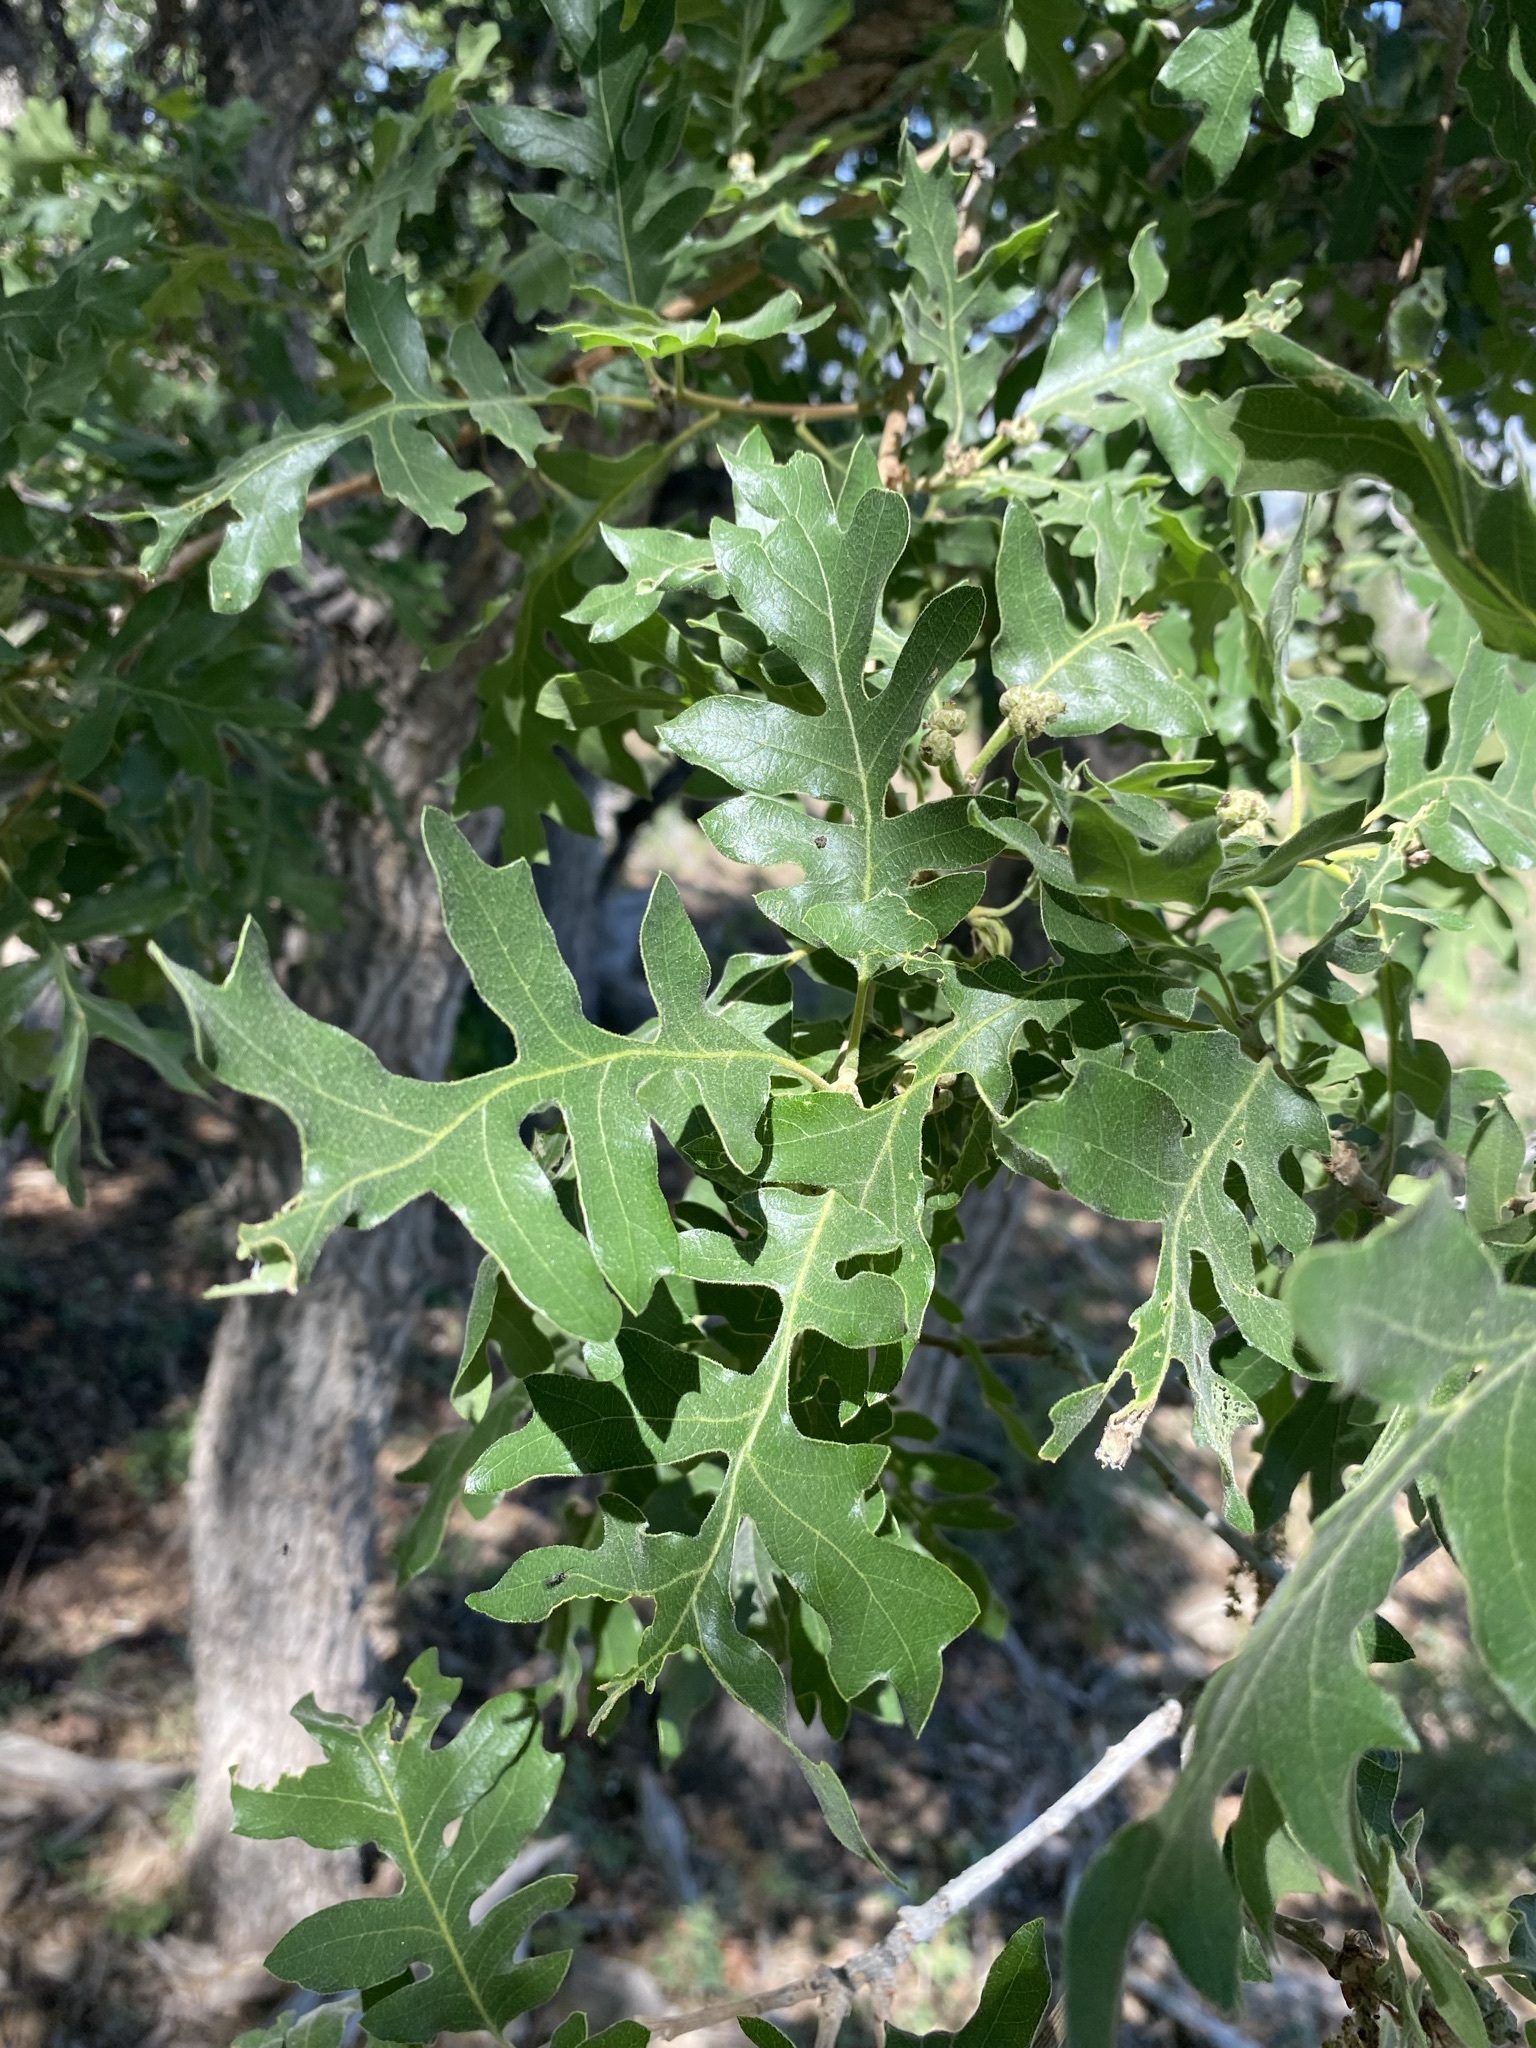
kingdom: Plantae
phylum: Tracheophyta
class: Magnoliopsida
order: Fagales
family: Fagaceae
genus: Quercus
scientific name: Quercus gambelii
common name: Gambel oak
